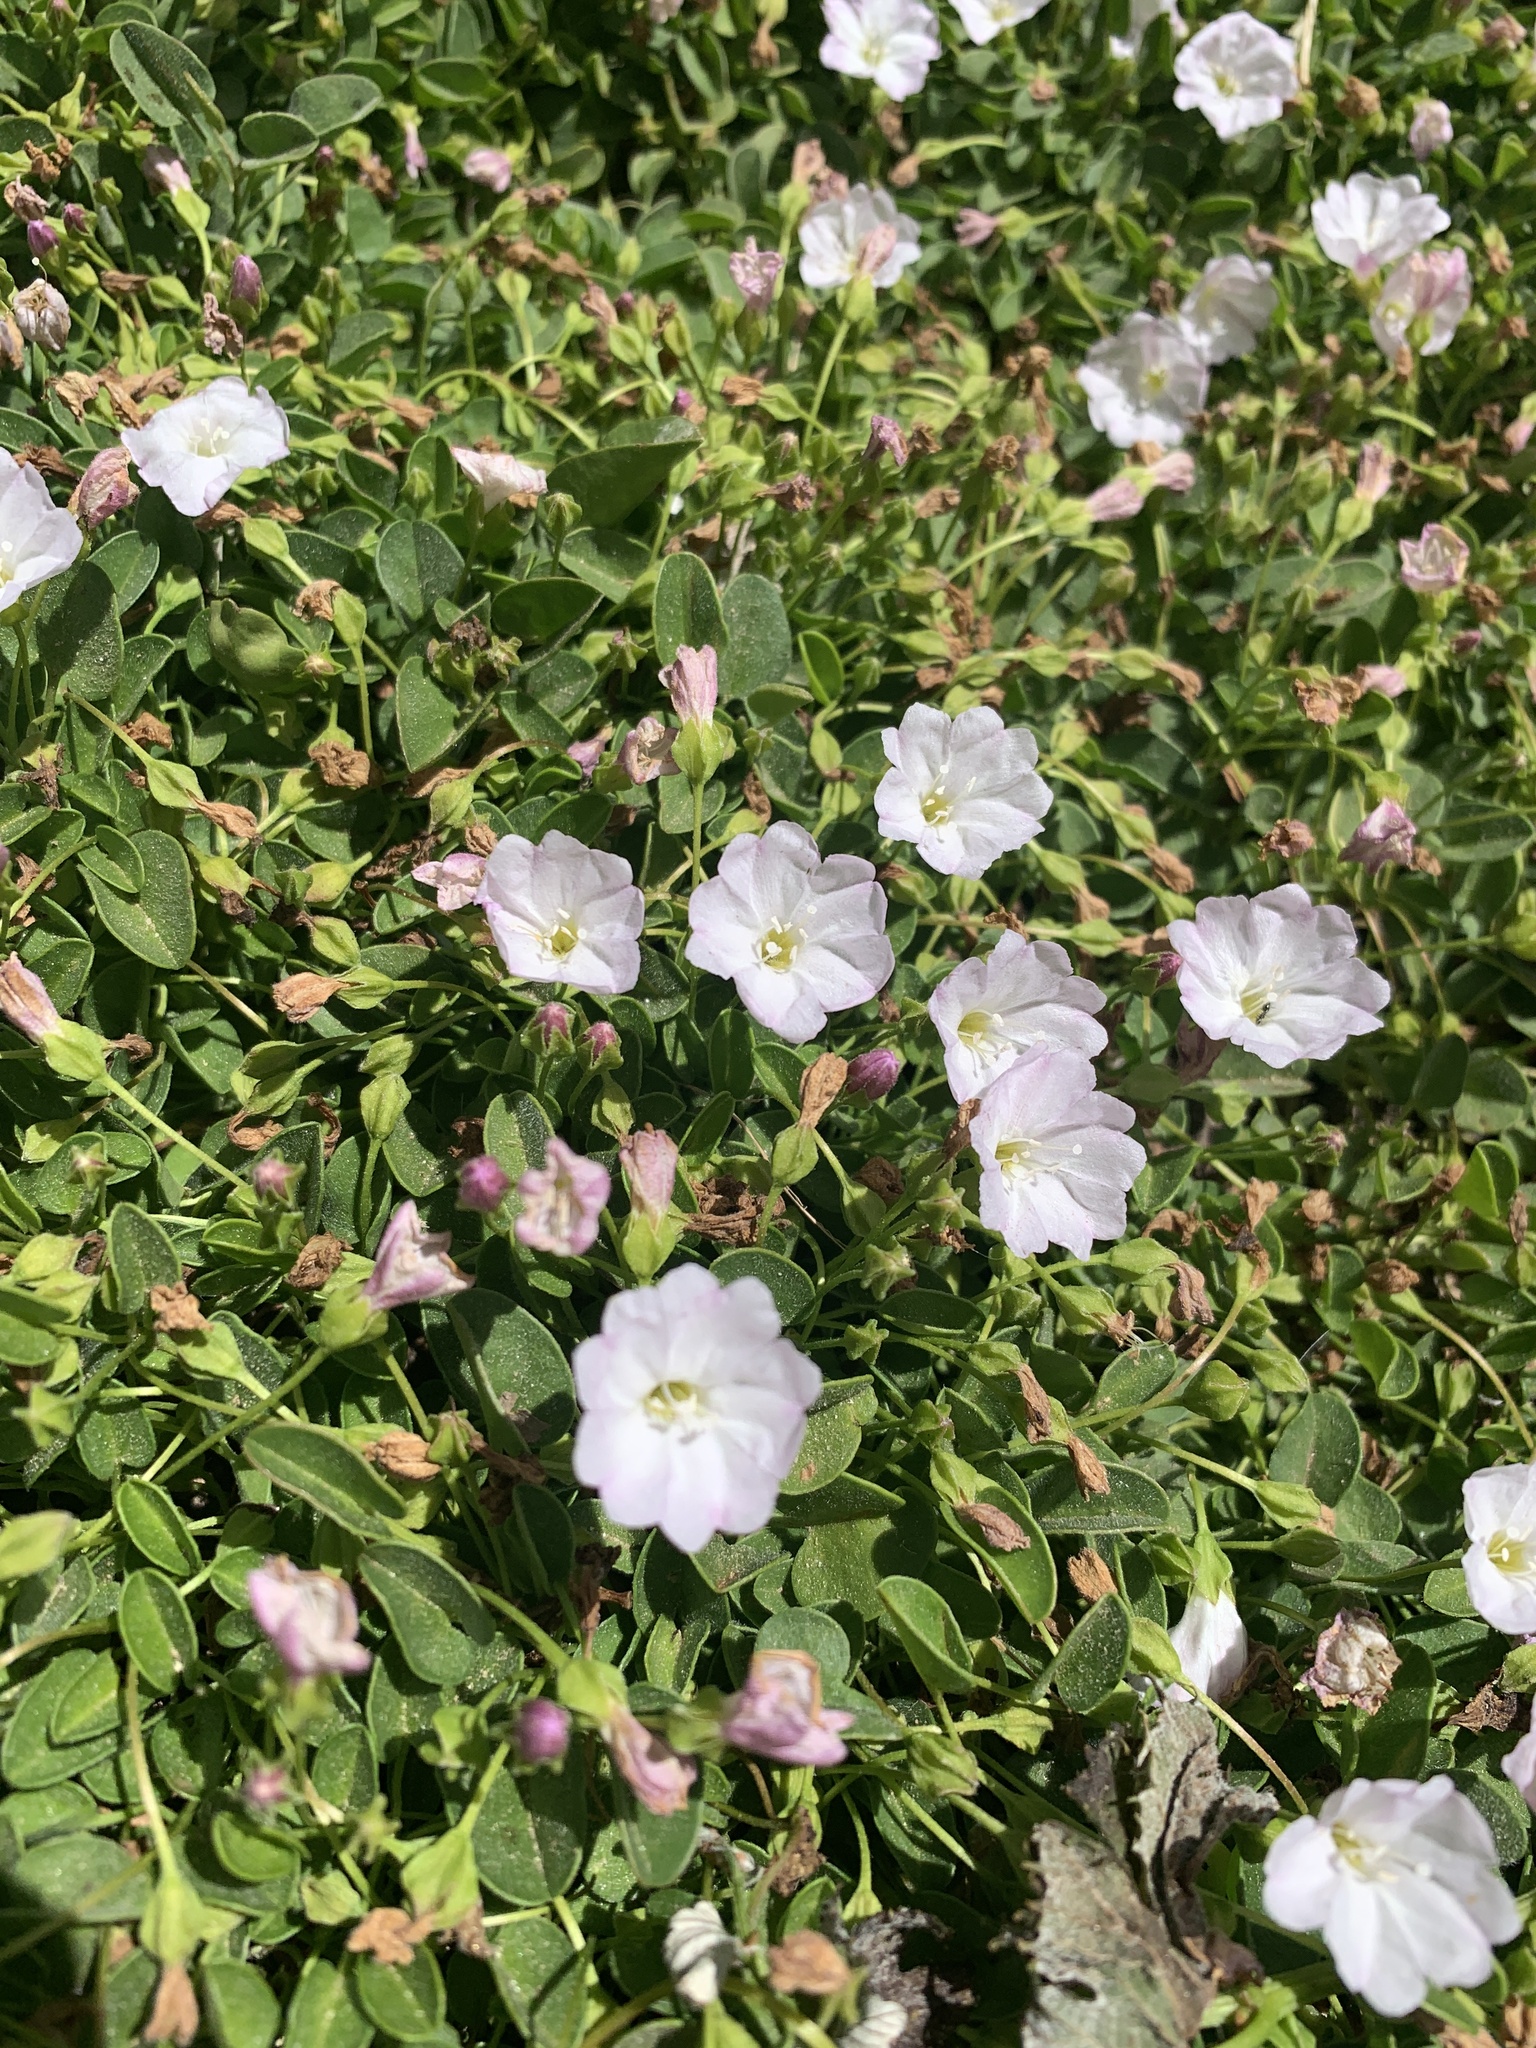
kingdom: Plantae
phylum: Tracheophyta
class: Magnoliopsida
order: Solanales
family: Convolvulaceae
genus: Falkia
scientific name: Falkia repens
